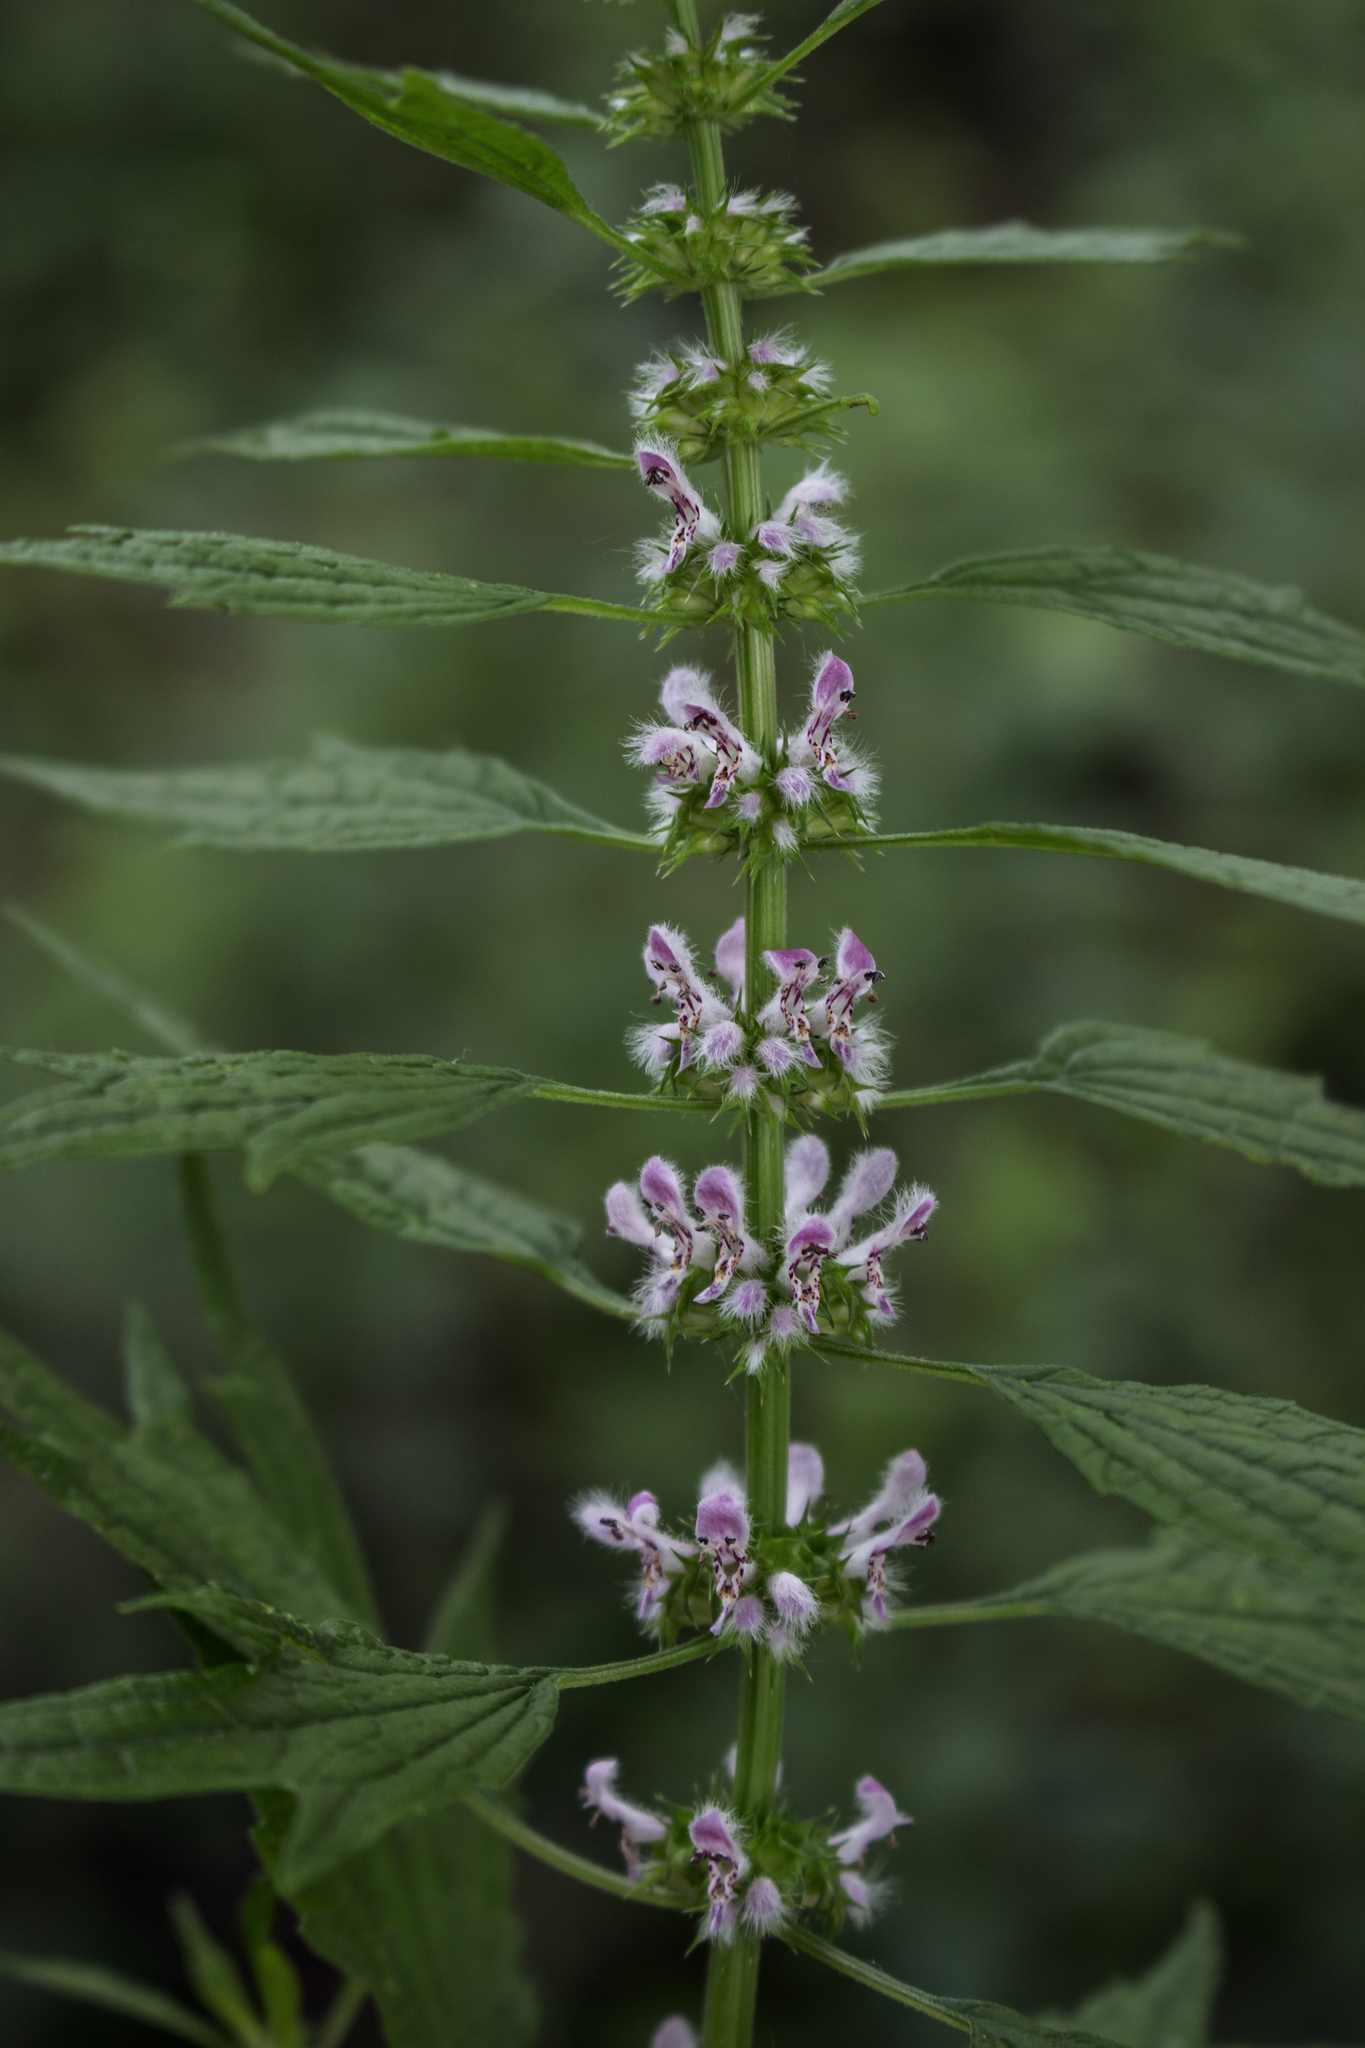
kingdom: Plantae
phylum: Tracheophyta
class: Magnoliopsida
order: Lamiales
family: Lamiaceae
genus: Leonurus
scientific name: Leonurus cardiaca
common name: Motherwort
